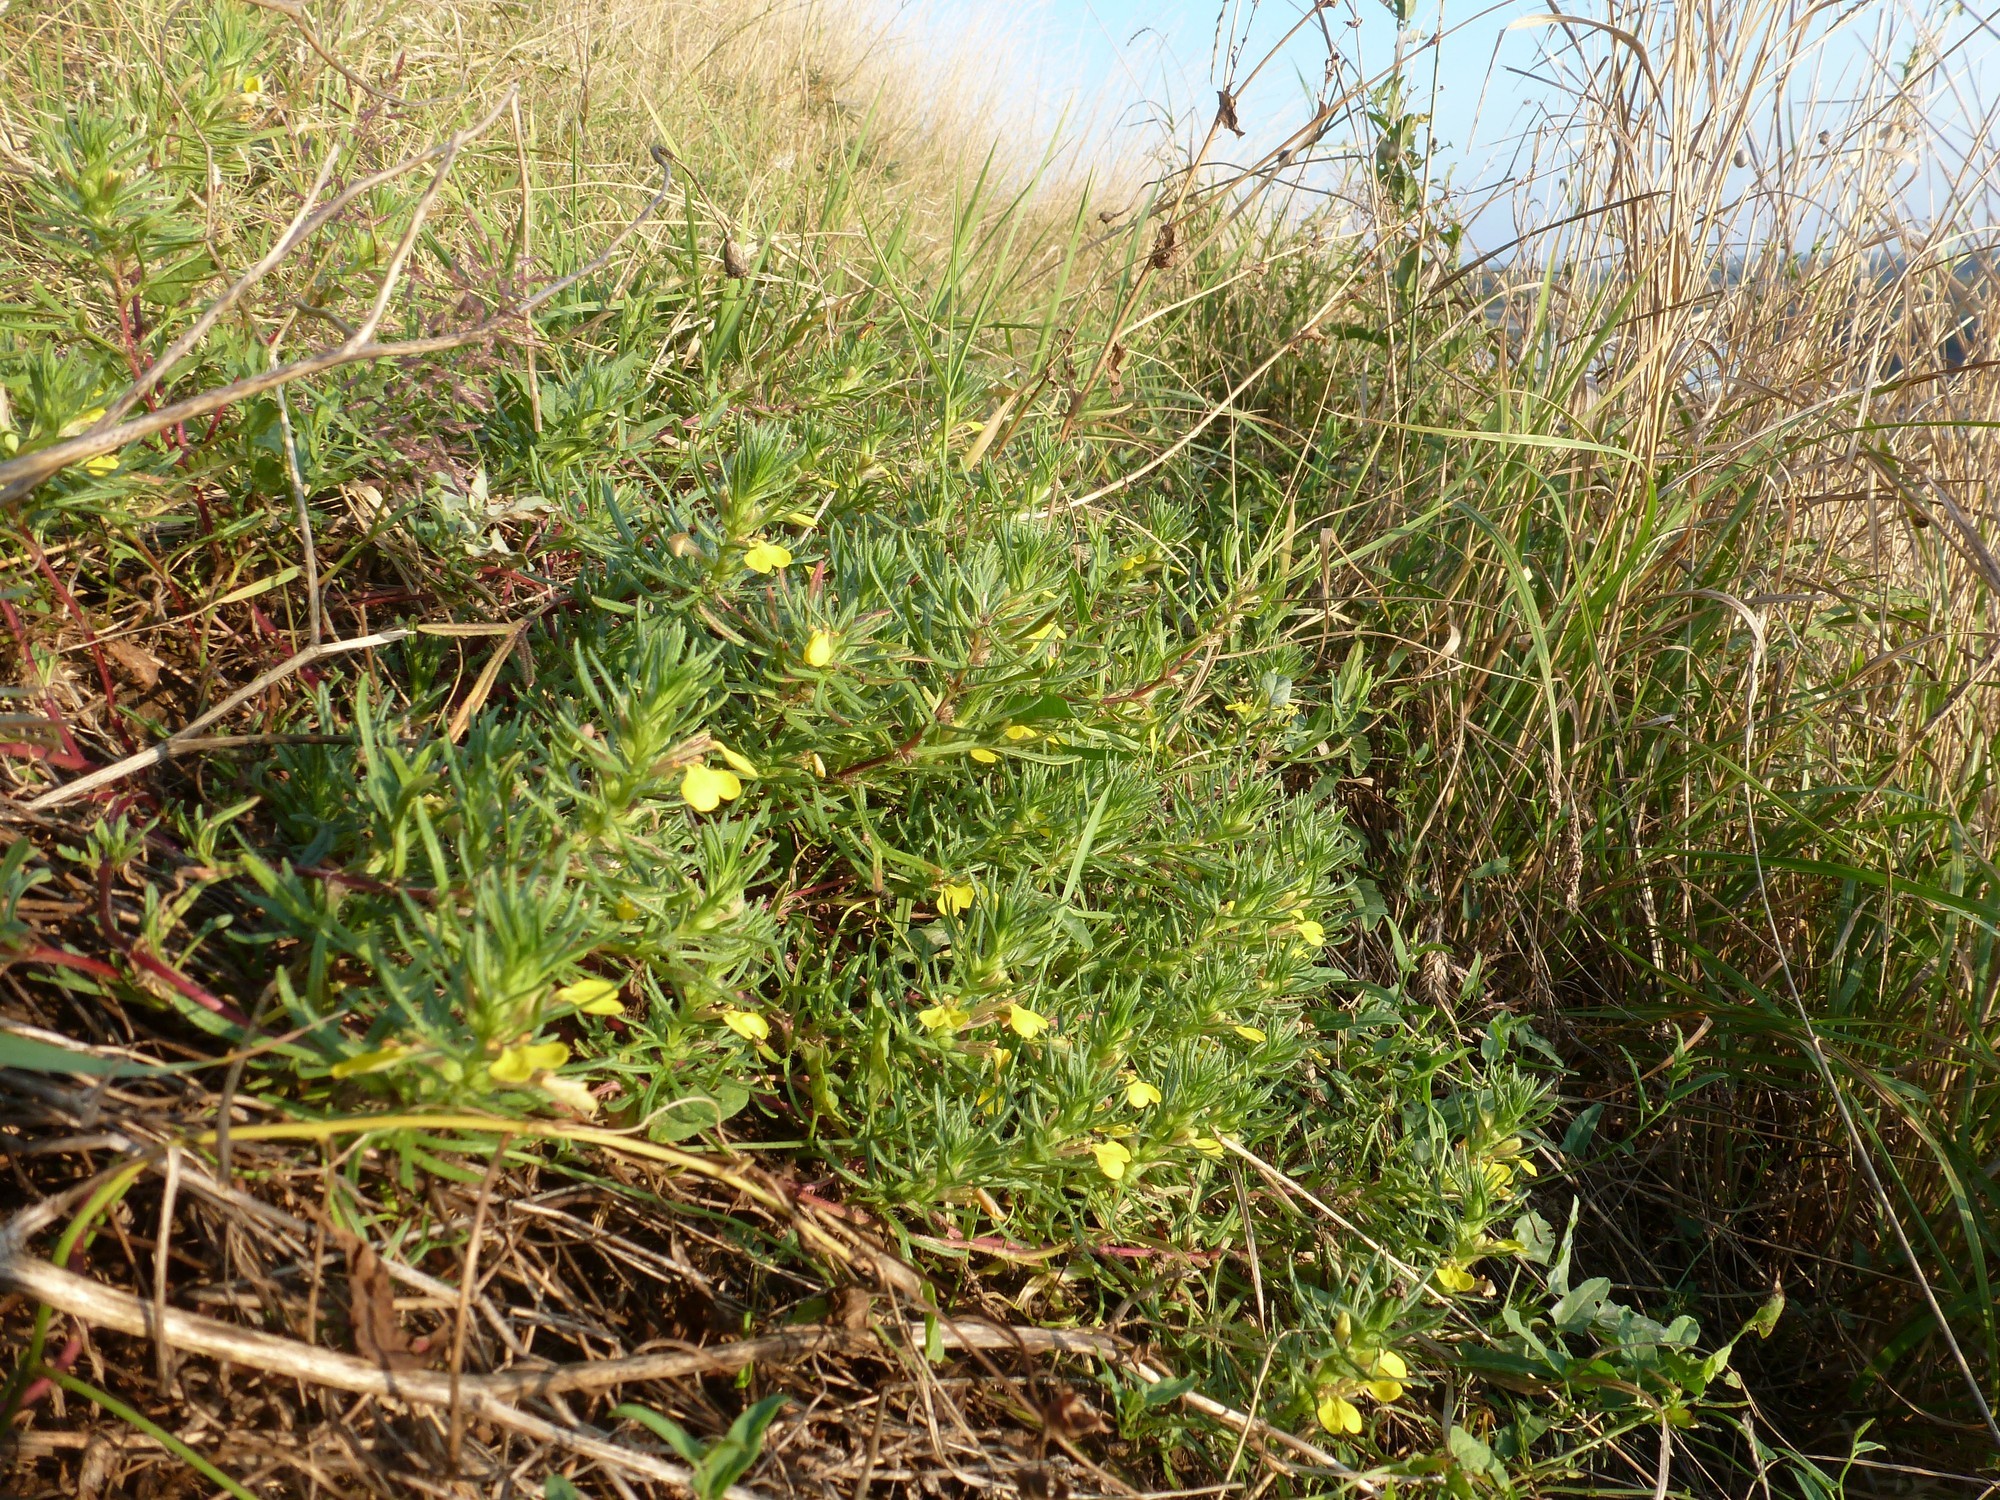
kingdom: Plantae
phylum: Tracheophyta
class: Magnoliopsida
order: Lamiales
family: Lamiaceae
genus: Ajuga
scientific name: Ajuga chamaepitys
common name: Ground-pine
